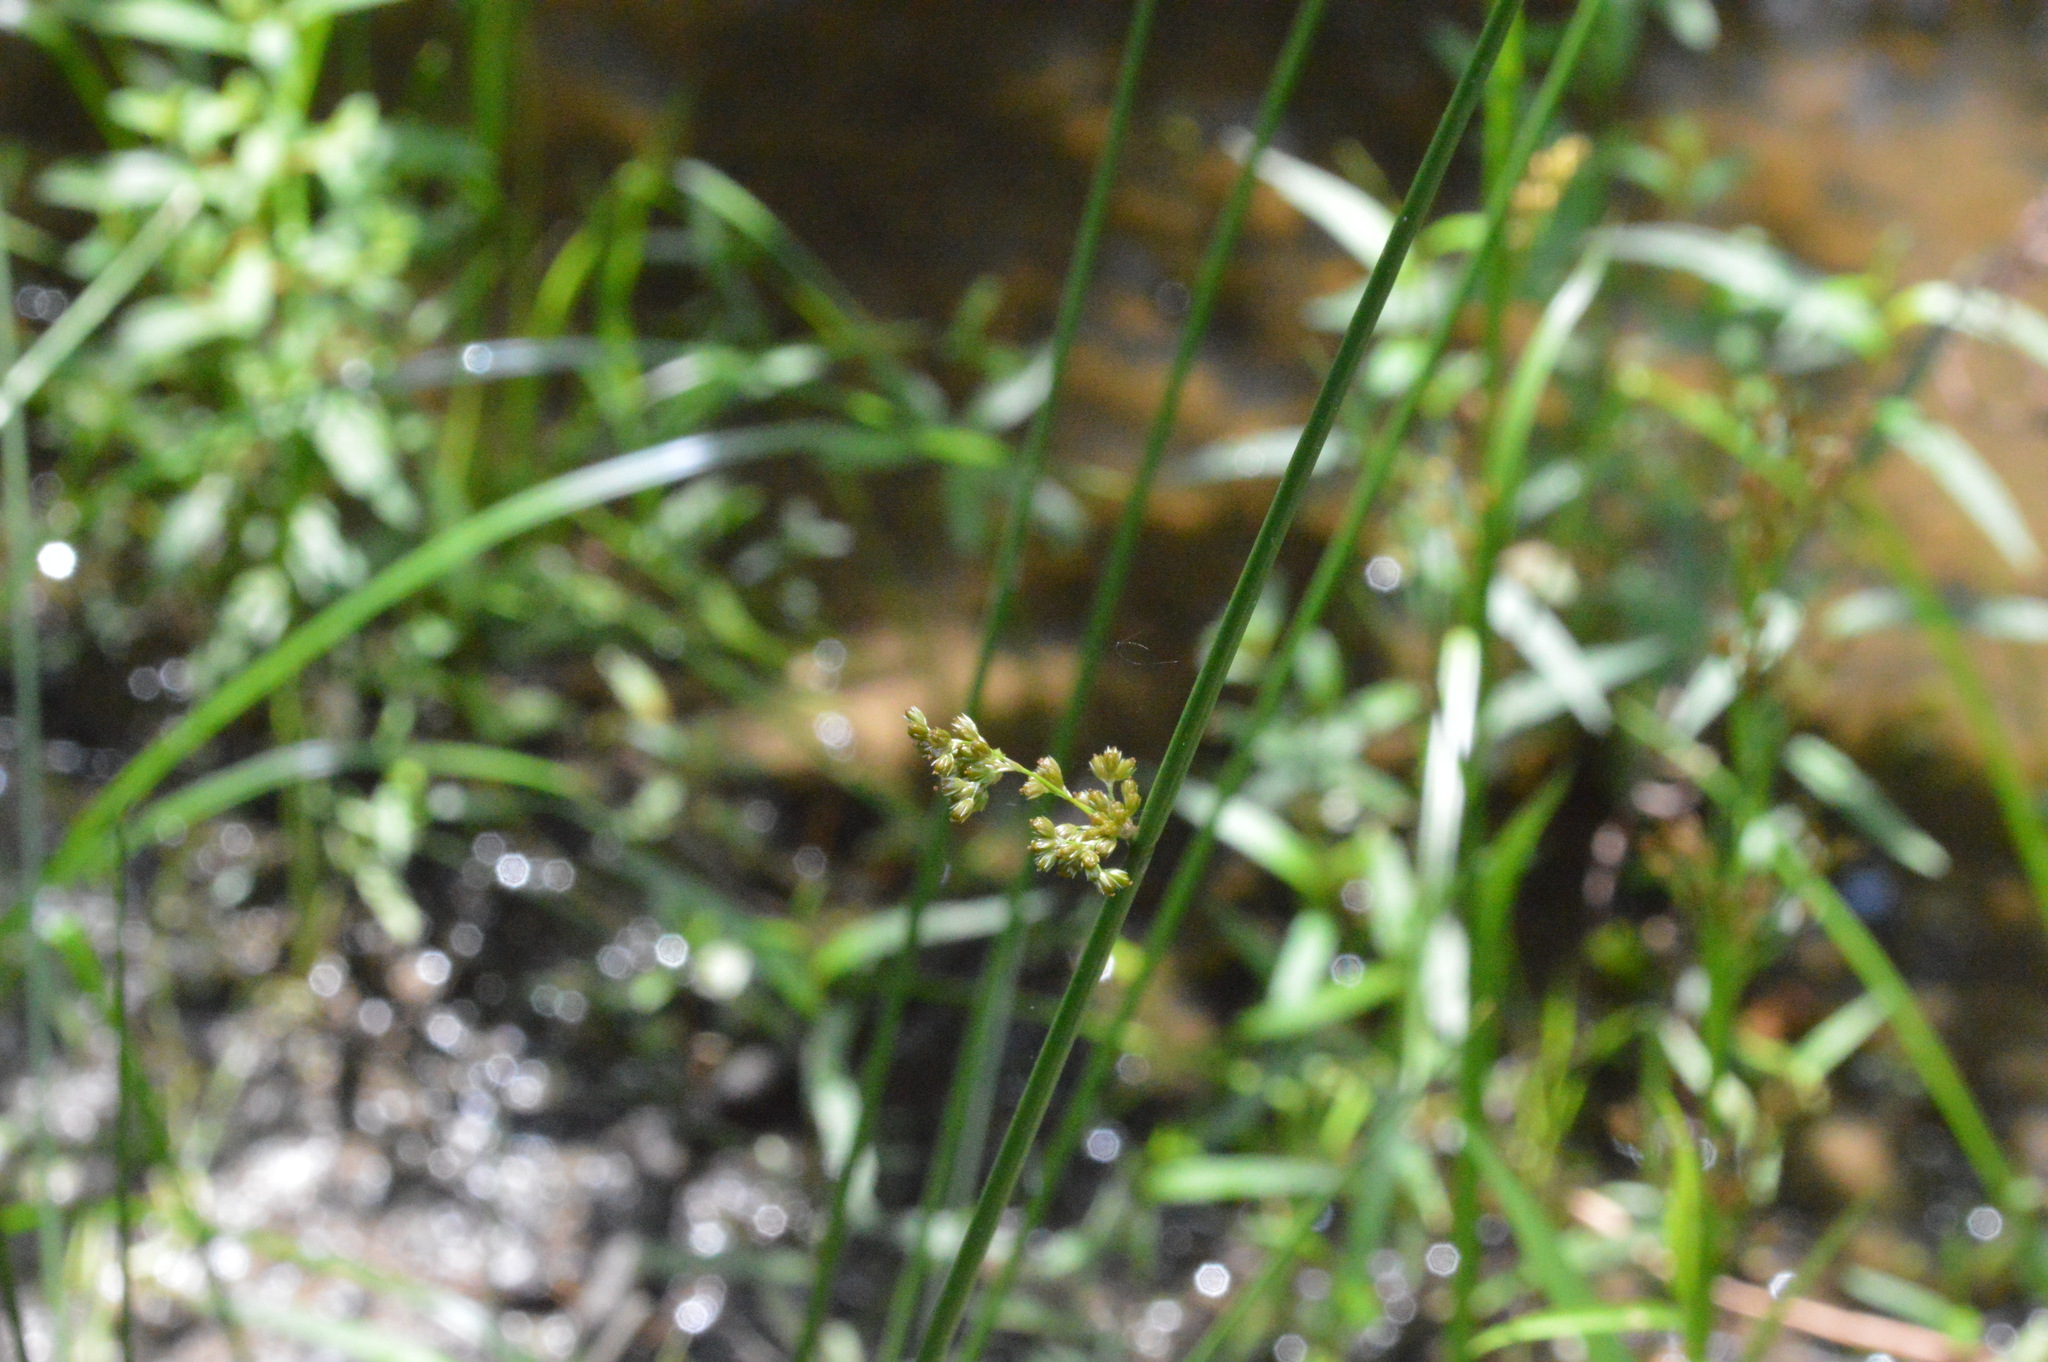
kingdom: Plantae
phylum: Tracheophyta
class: Liliopsida
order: Poales
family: Juncaceae
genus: Juncus
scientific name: Juncus effusus
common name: Soft rush
